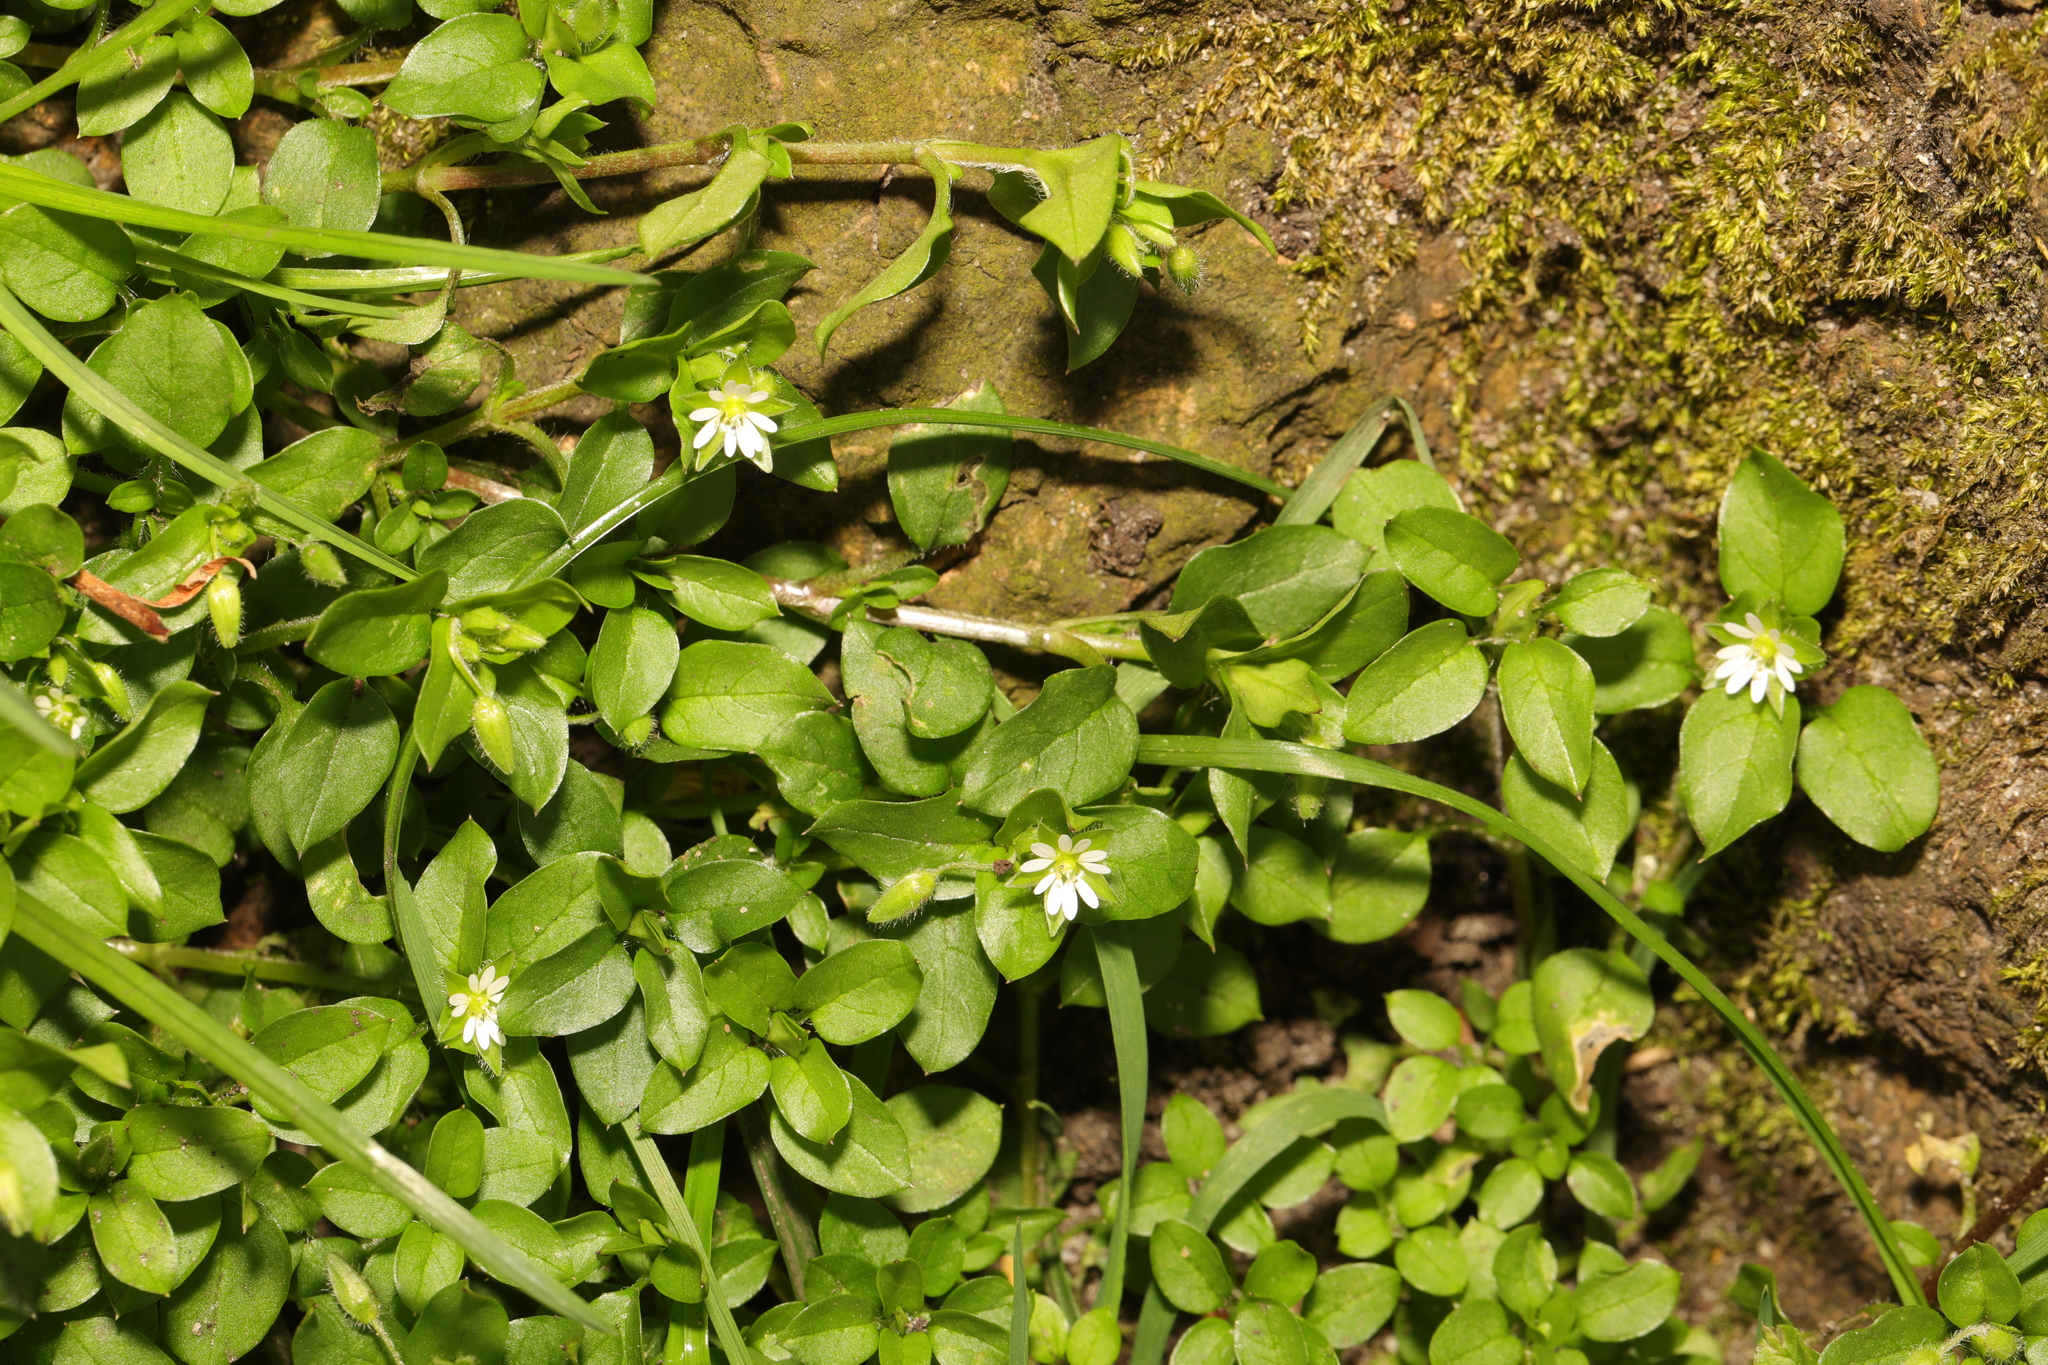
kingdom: Plantae
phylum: Tracheophyta
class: Magnoliopsida
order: Caryophyllales
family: Caryophyllaceae
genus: Stellaria
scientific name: Stellaria media
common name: Common chickweed
